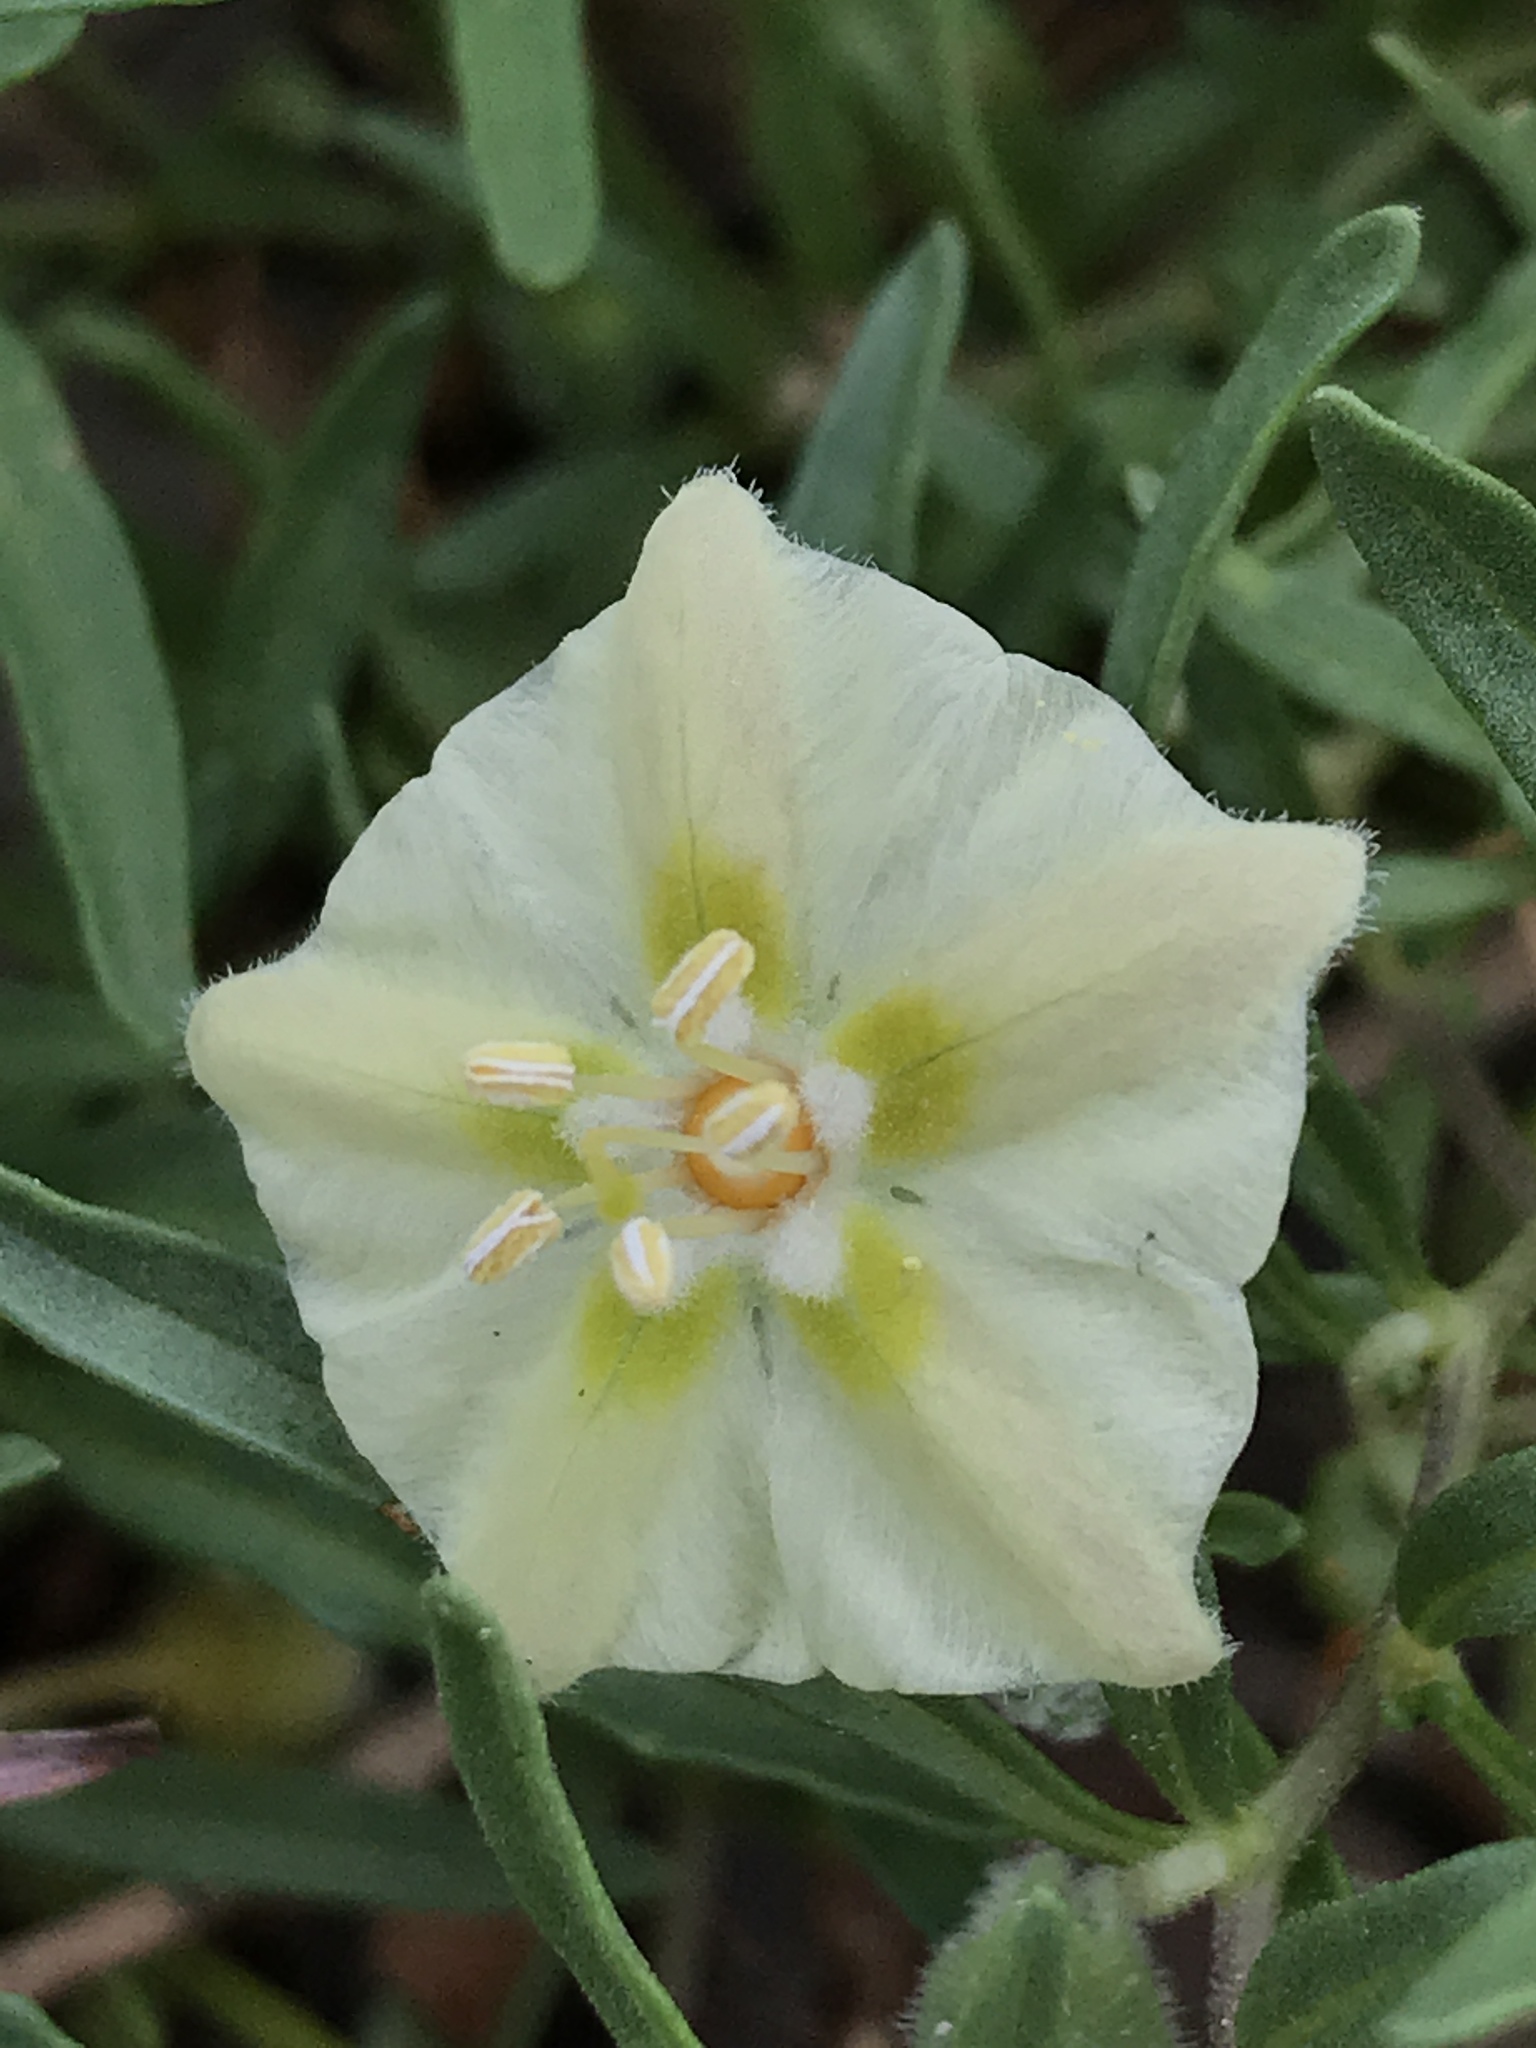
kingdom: Plantae
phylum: Tracheophyta
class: Magnoliopsida
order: Solanales
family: Solanaceae
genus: Chamaesaracha
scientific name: Chamaesaracha edwardsiana
